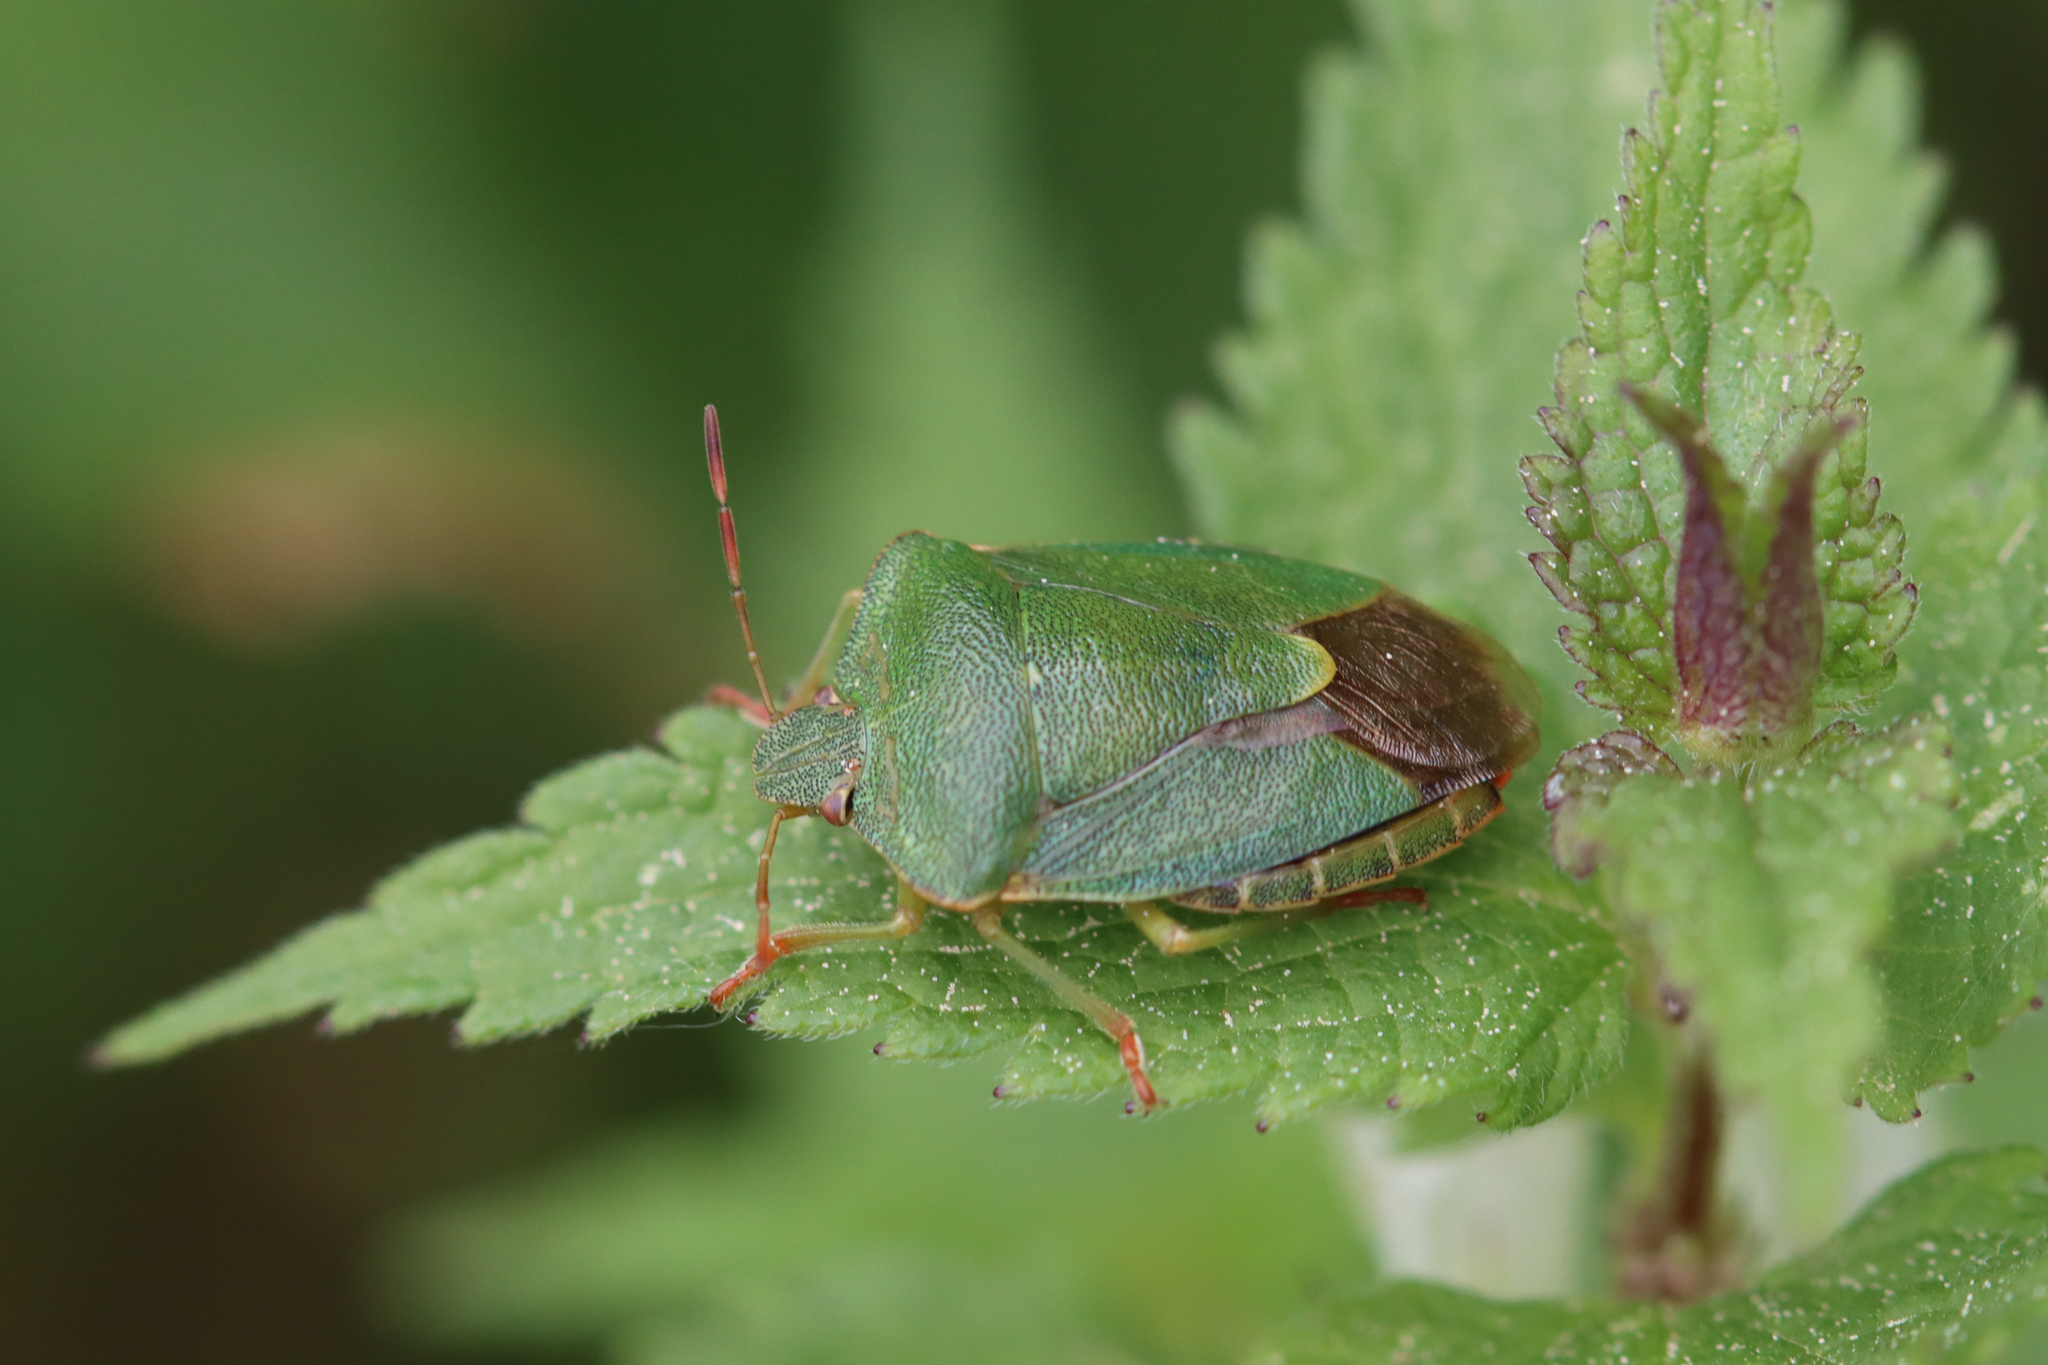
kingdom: Animalia
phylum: Arthropoda
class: Insecta
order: Hemiptera
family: Pentatomidae
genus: Palomena
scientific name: Palomena prasina
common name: Green shieldbug
